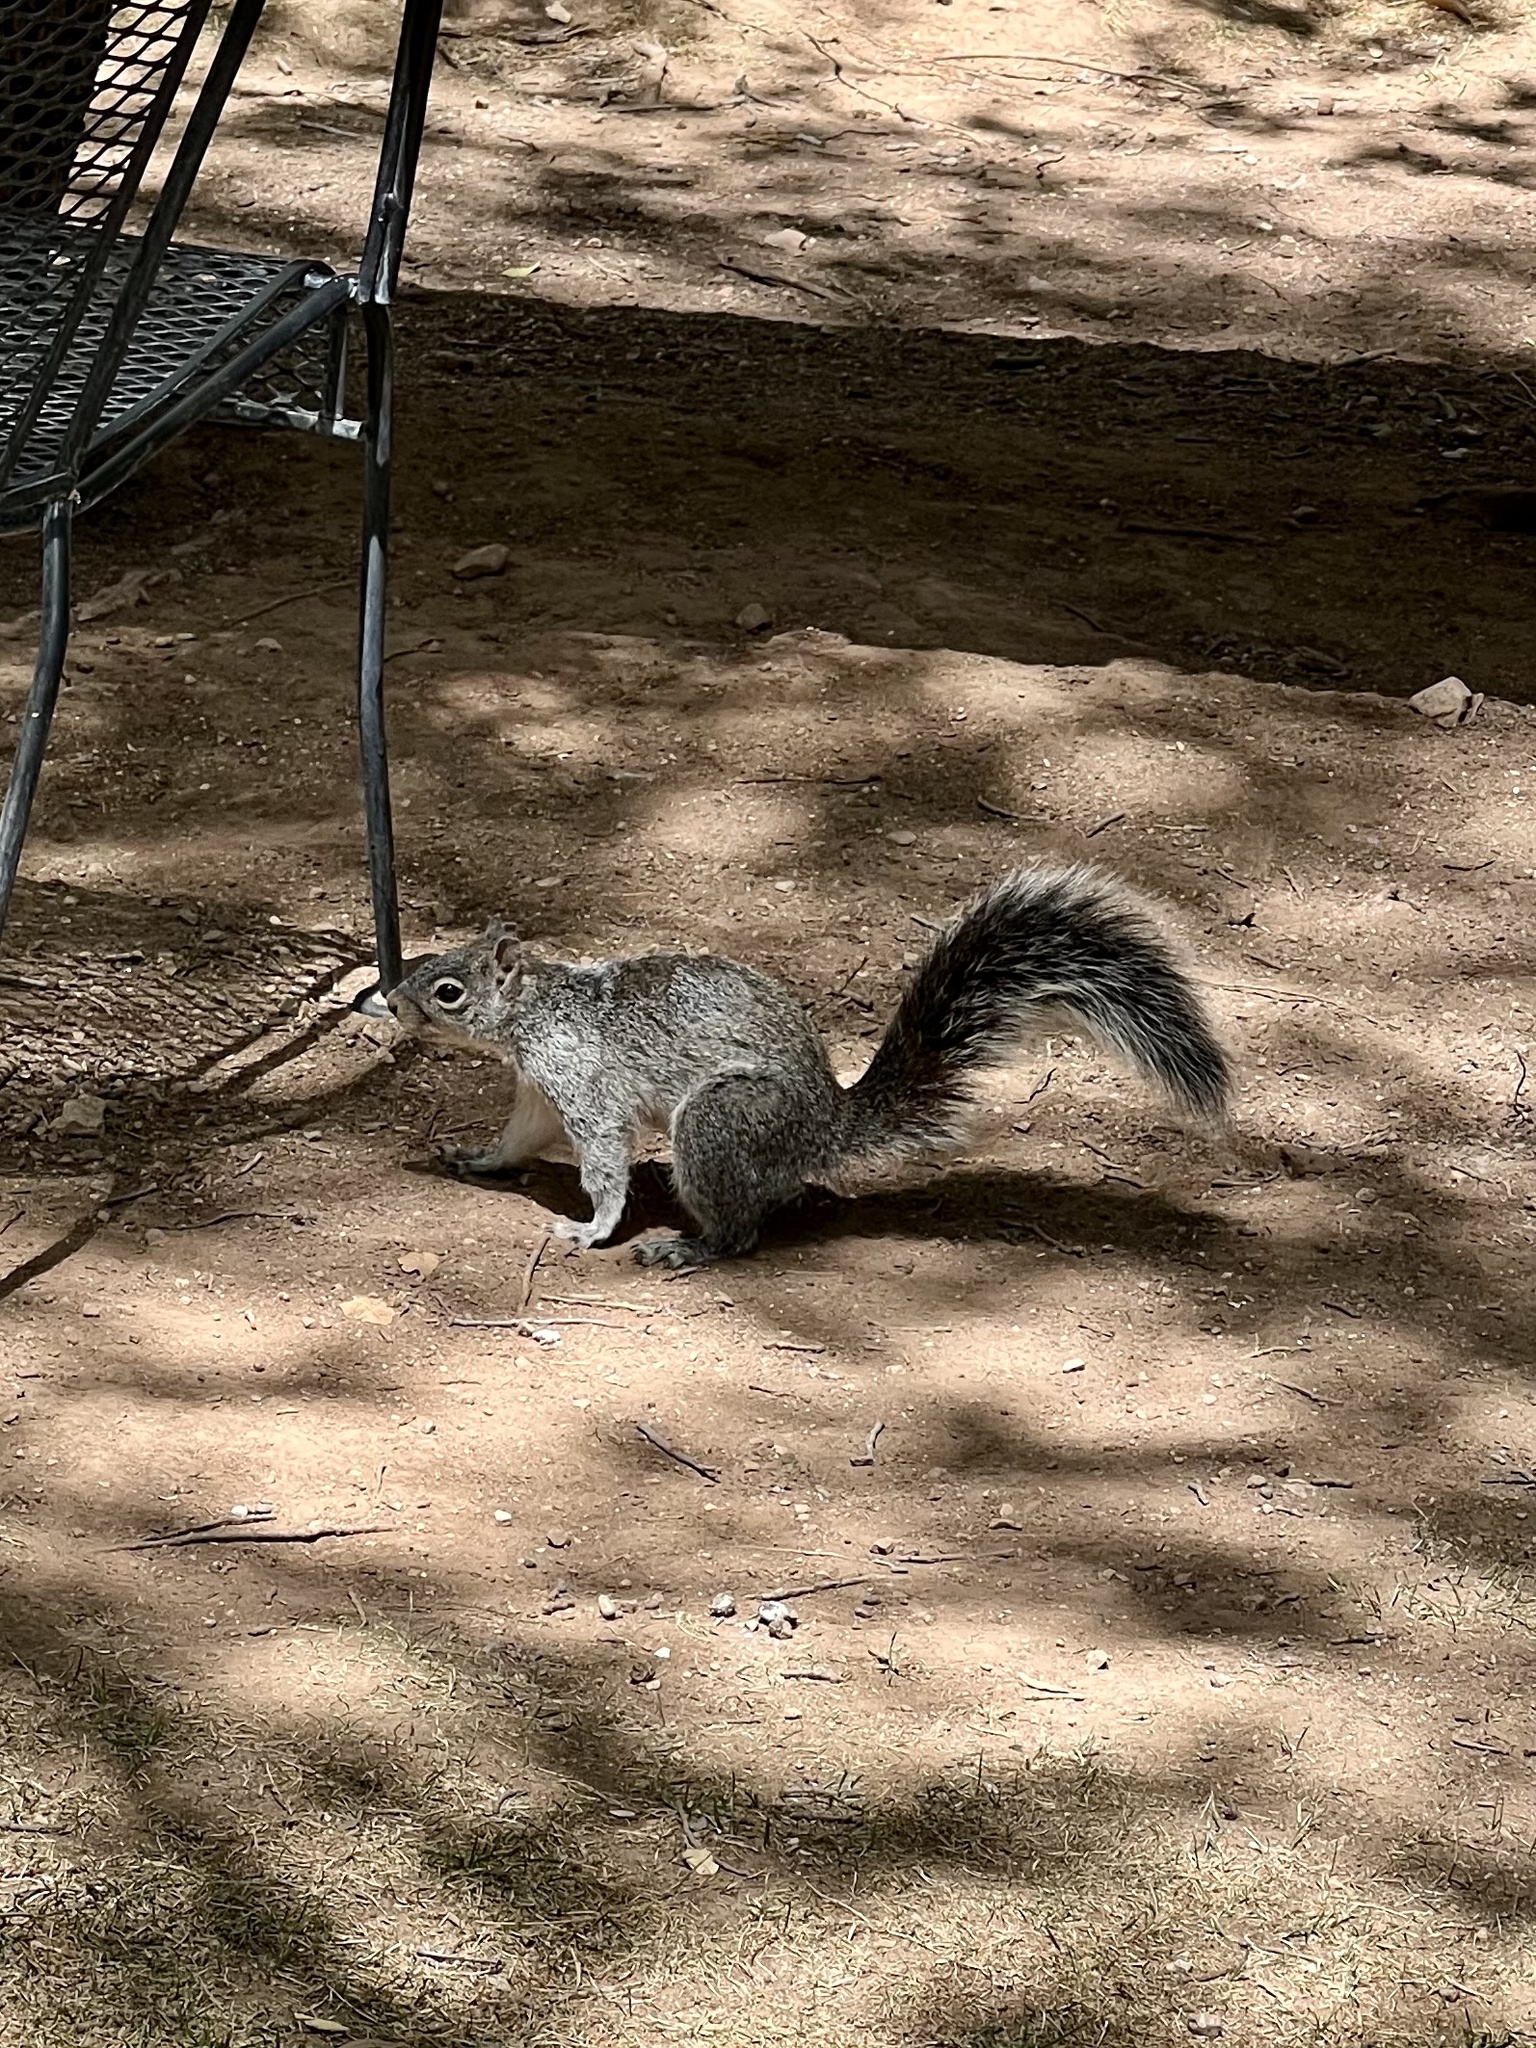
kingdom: Animalia
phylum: Chordata
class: Mammalia
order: Rodentia
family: Sciuridae
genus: Sciurus
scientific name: Sciurus arizonensis
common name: Arizona gray squirrel
